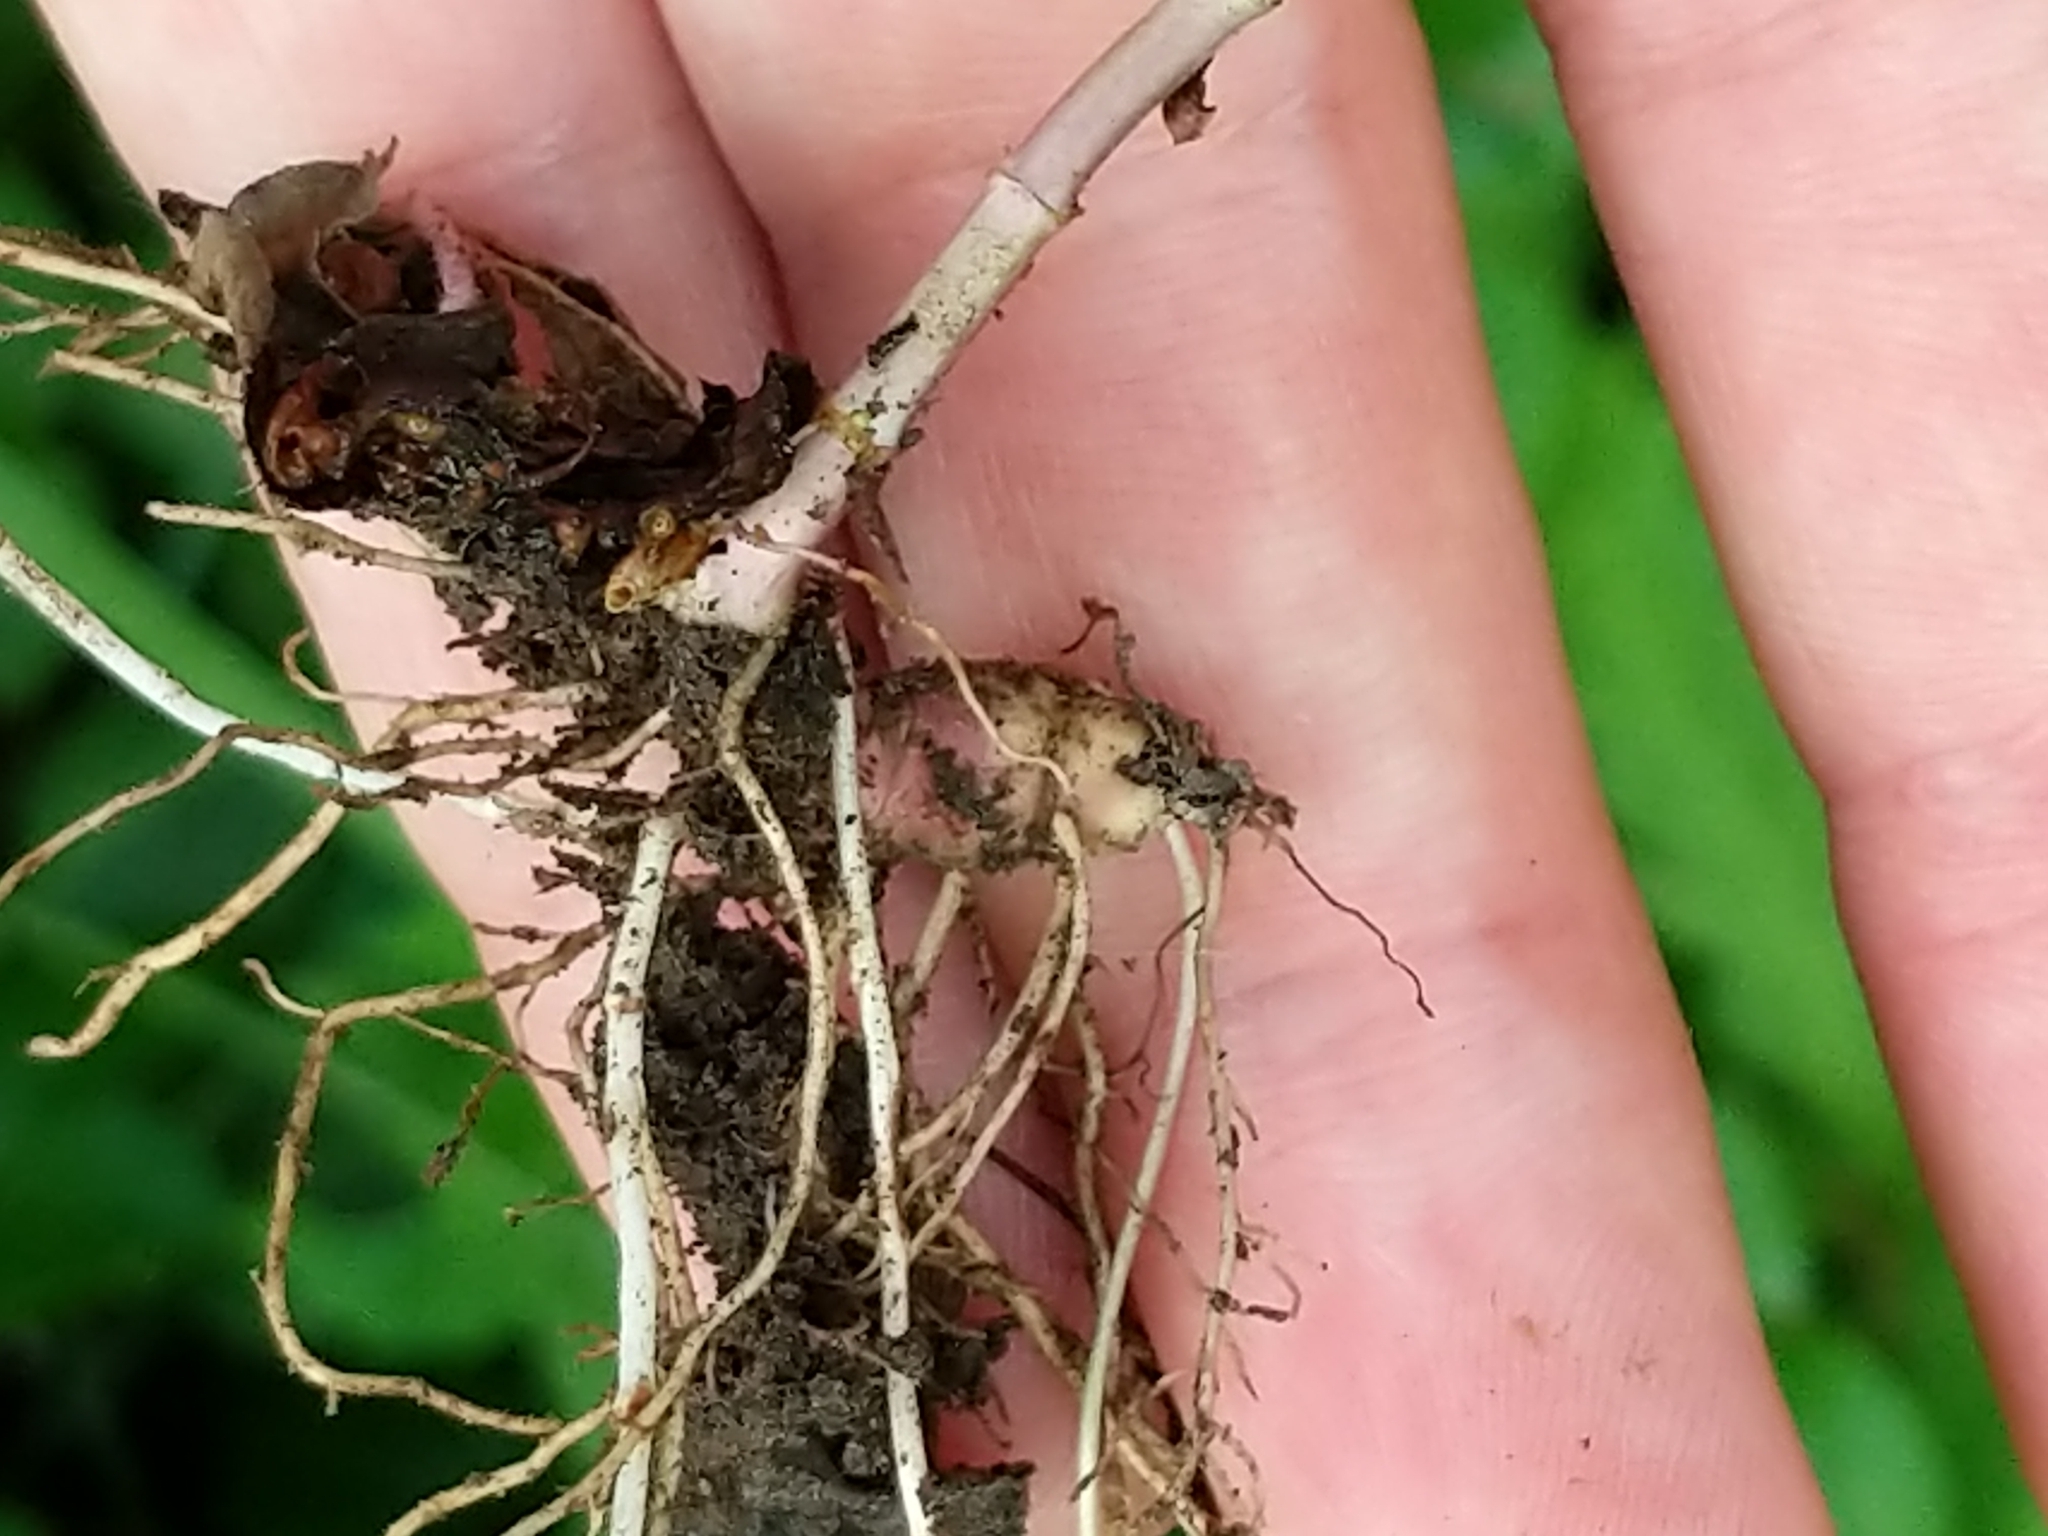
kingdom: Plantae
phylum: Tracheophyta
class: Magnoliopsida
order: Lamiales
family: Lamiaceae
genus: Lycopus
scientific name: Lycopus uniflorus
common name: Northern bugleweed
